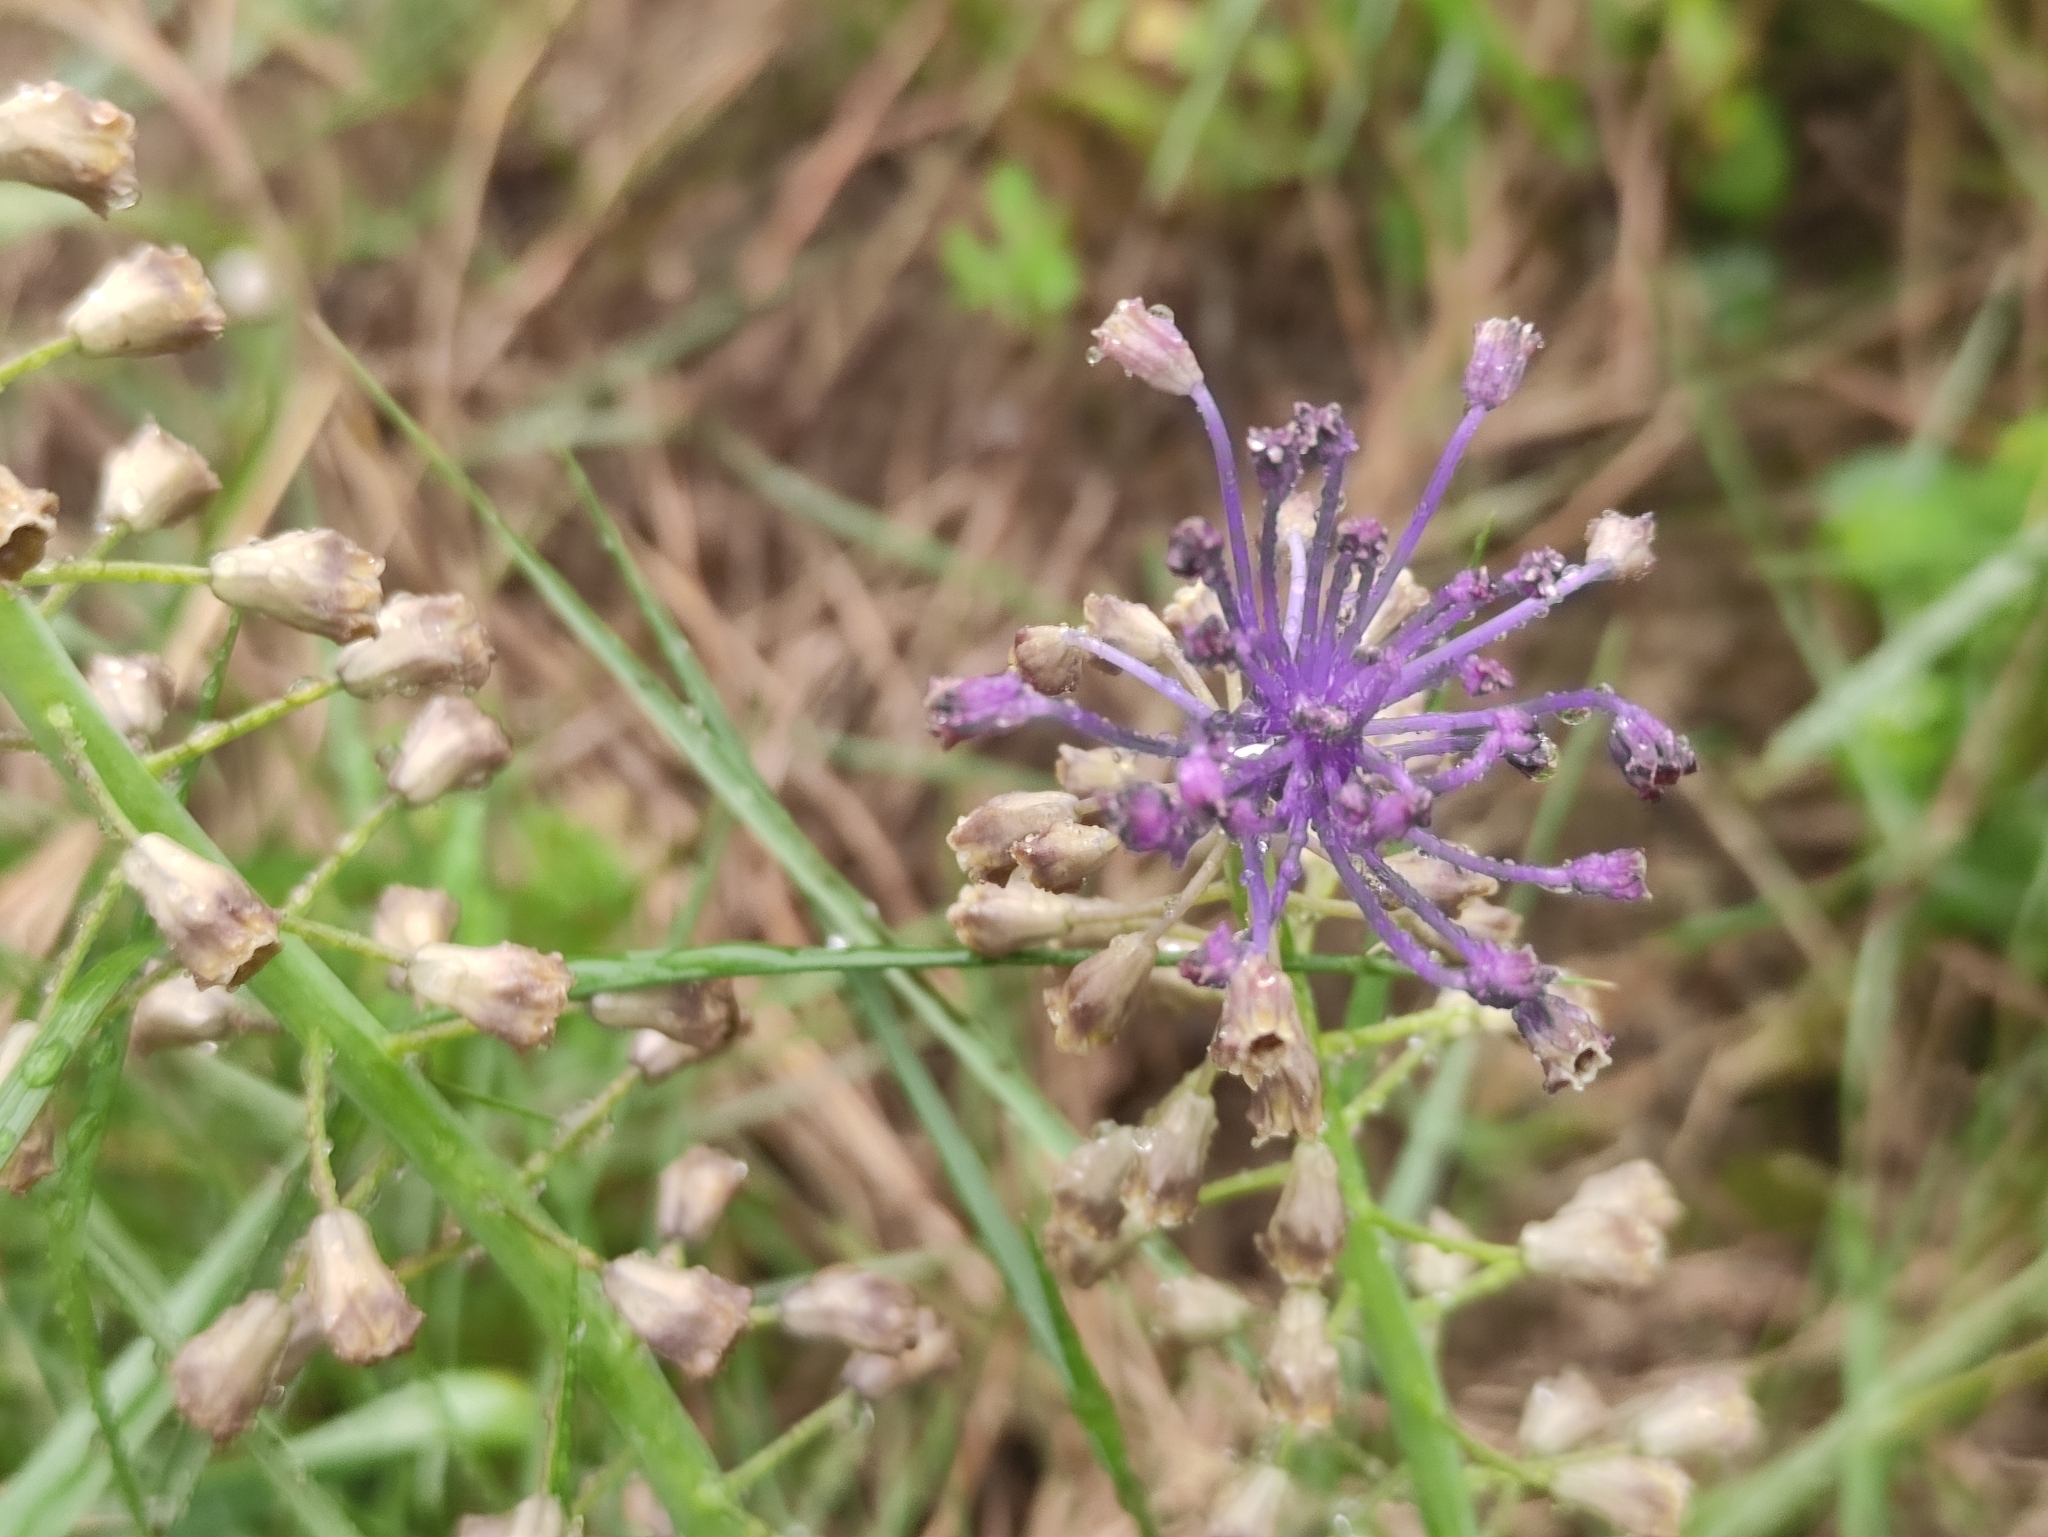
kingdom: Plantae
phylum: Tracheophyta
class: Liliopsida
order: Asparagales
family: Asparagaceae
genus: Muscari
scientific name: Muscari comosum
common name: Tassel hyacinth
